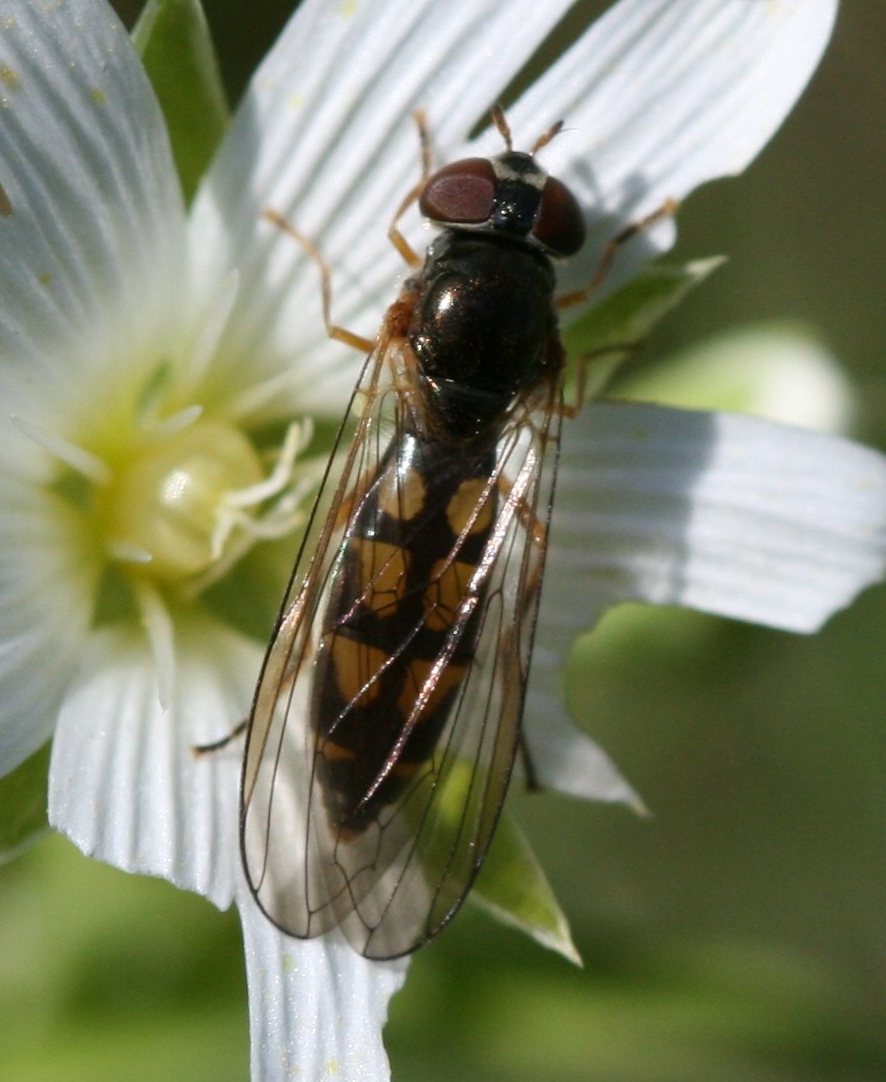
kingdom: Animalia
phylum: Arthropoda
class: Insecta
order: Diptera
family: Syrphidae
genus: Melanostoma
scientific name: Melanostoma scalare
